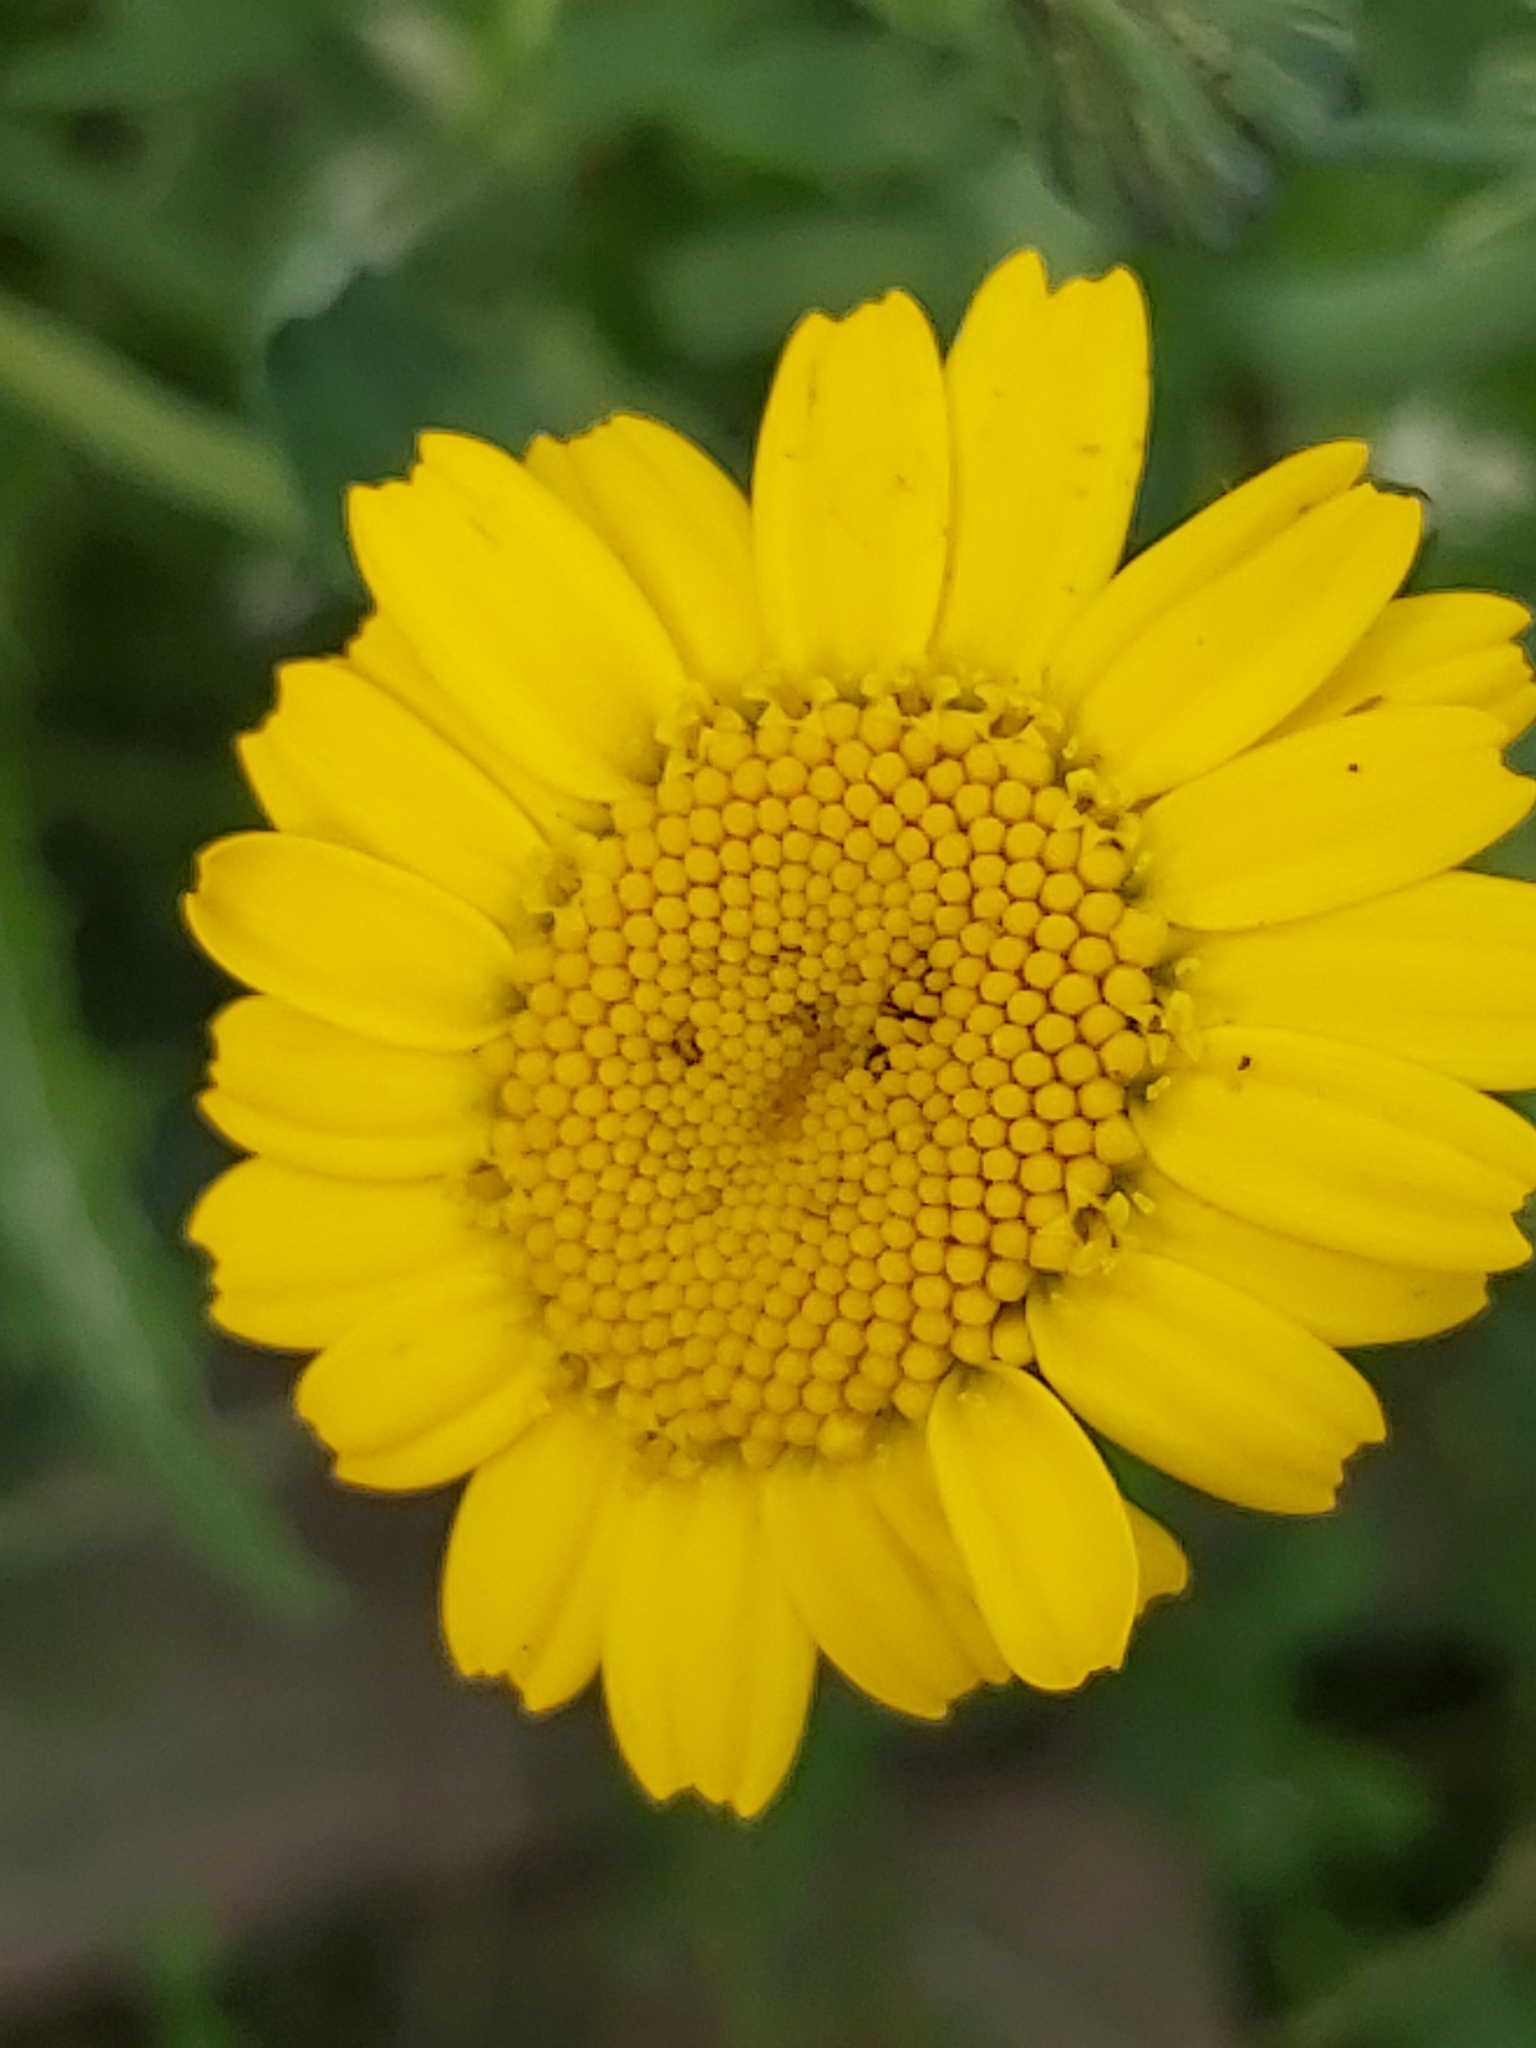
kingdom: Plantae
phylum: Tracheophyta
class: Magnoliopsida
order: Asterales
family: Asteraceae
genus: Glebionis
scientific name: Glebionis segetum
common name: Corndaisy
